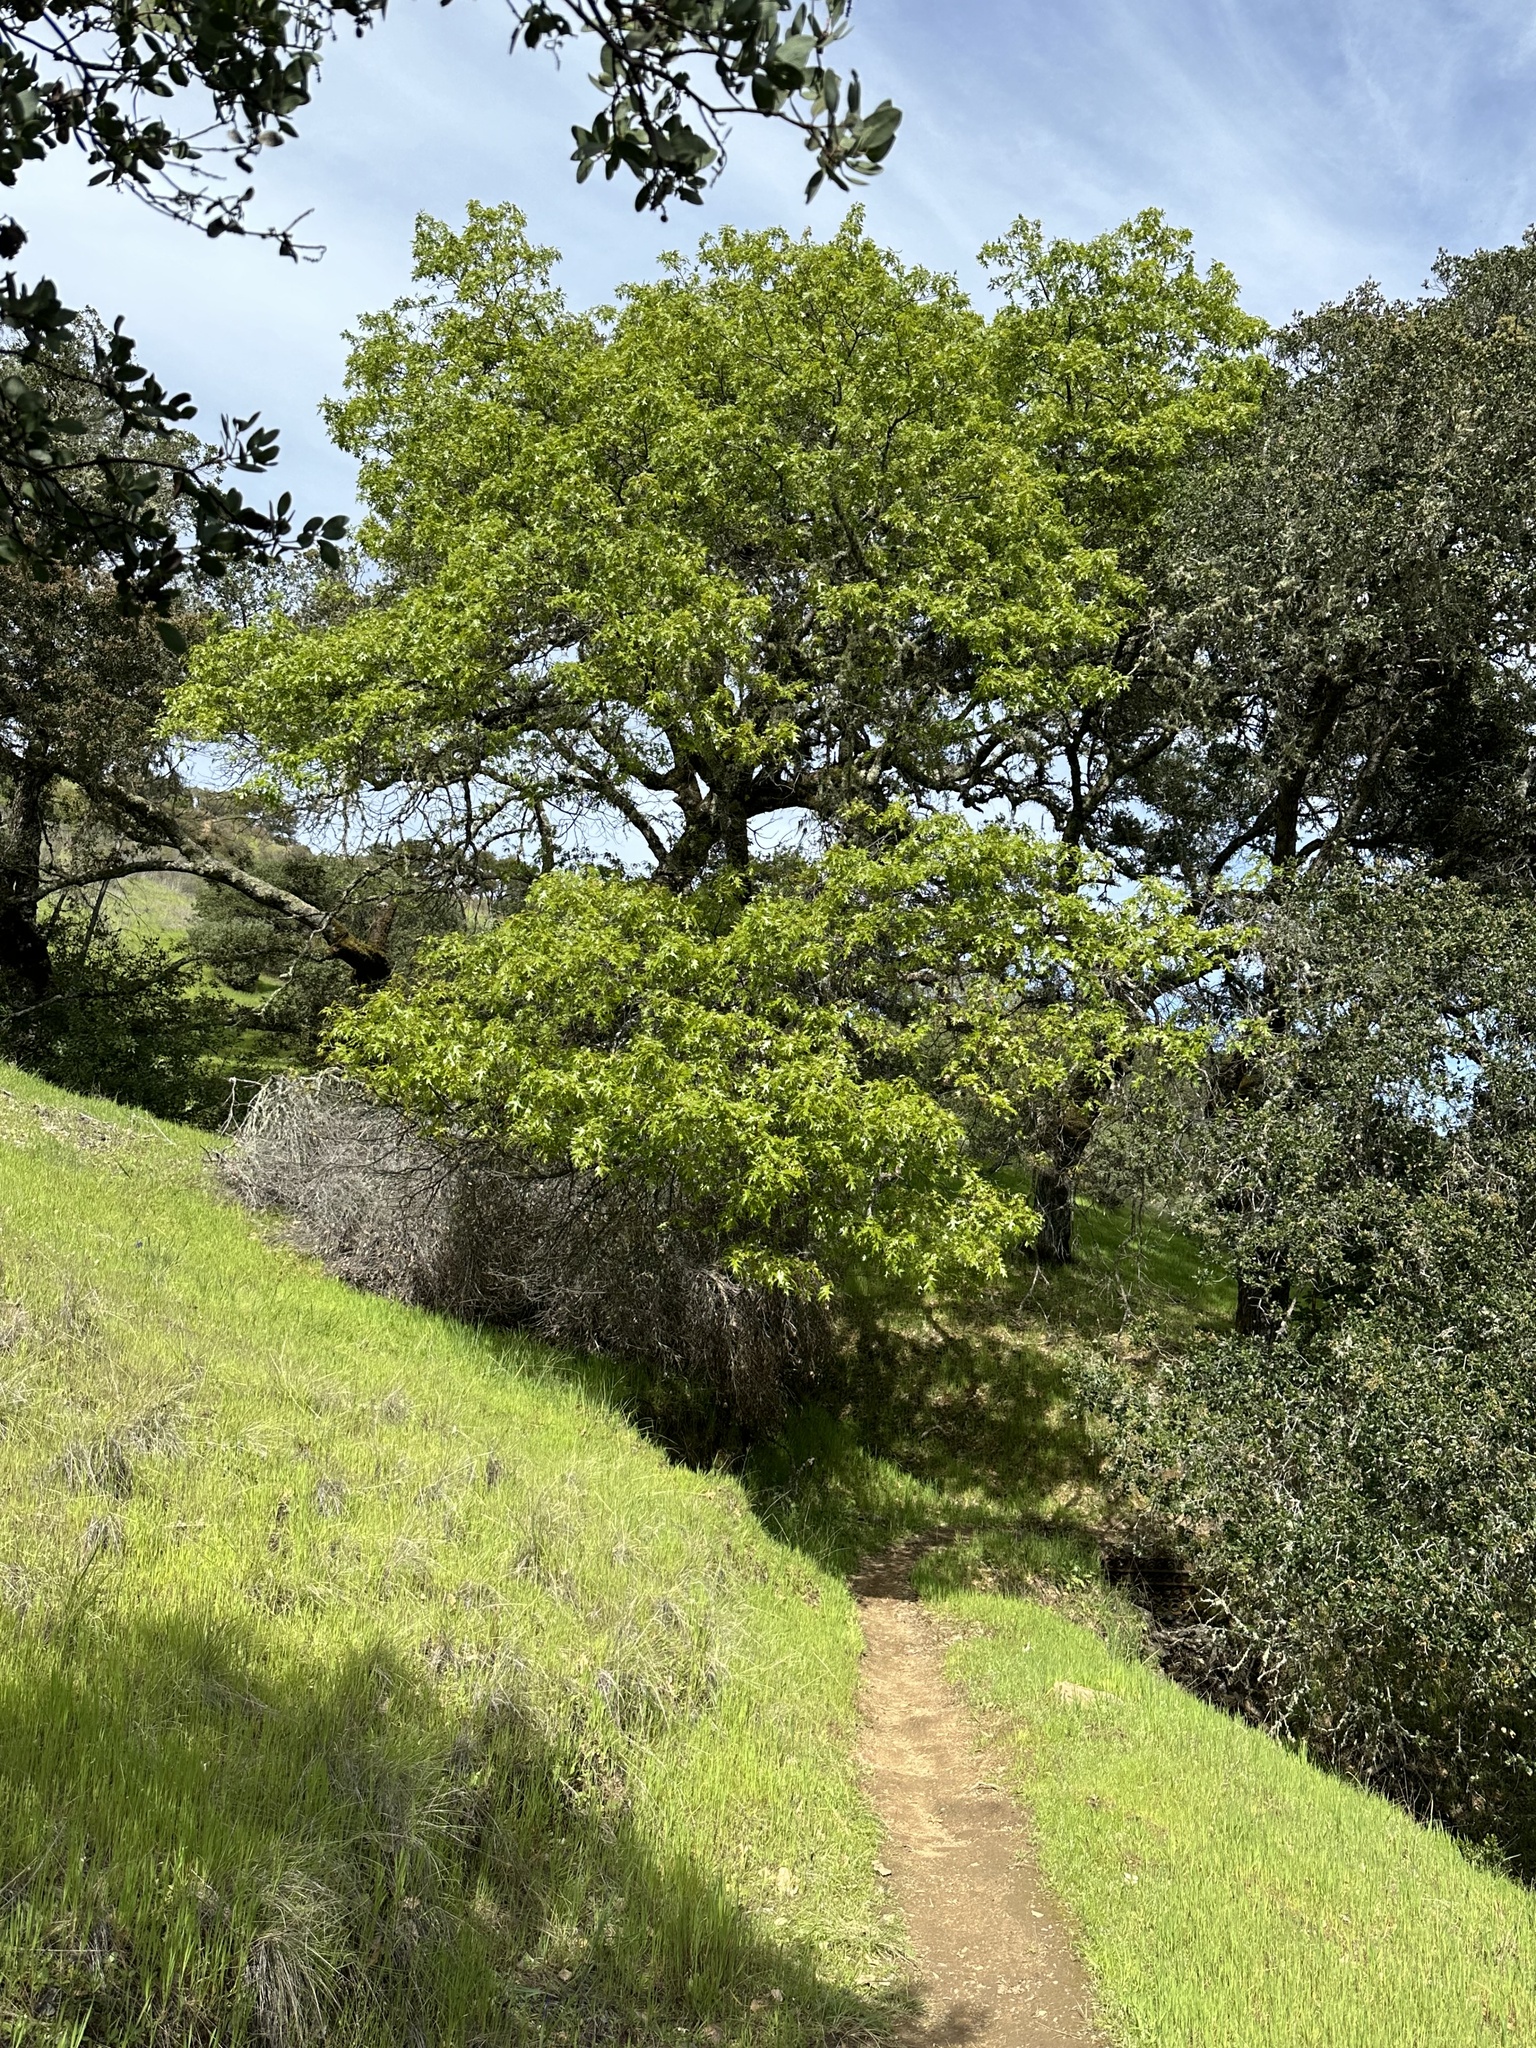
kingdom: Plantae
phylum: Tracheophyta
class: Magnoliopsida
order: Fagales
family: Fagaceae
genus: Quercus
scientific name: Quercus kelloggii
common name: California black oak
